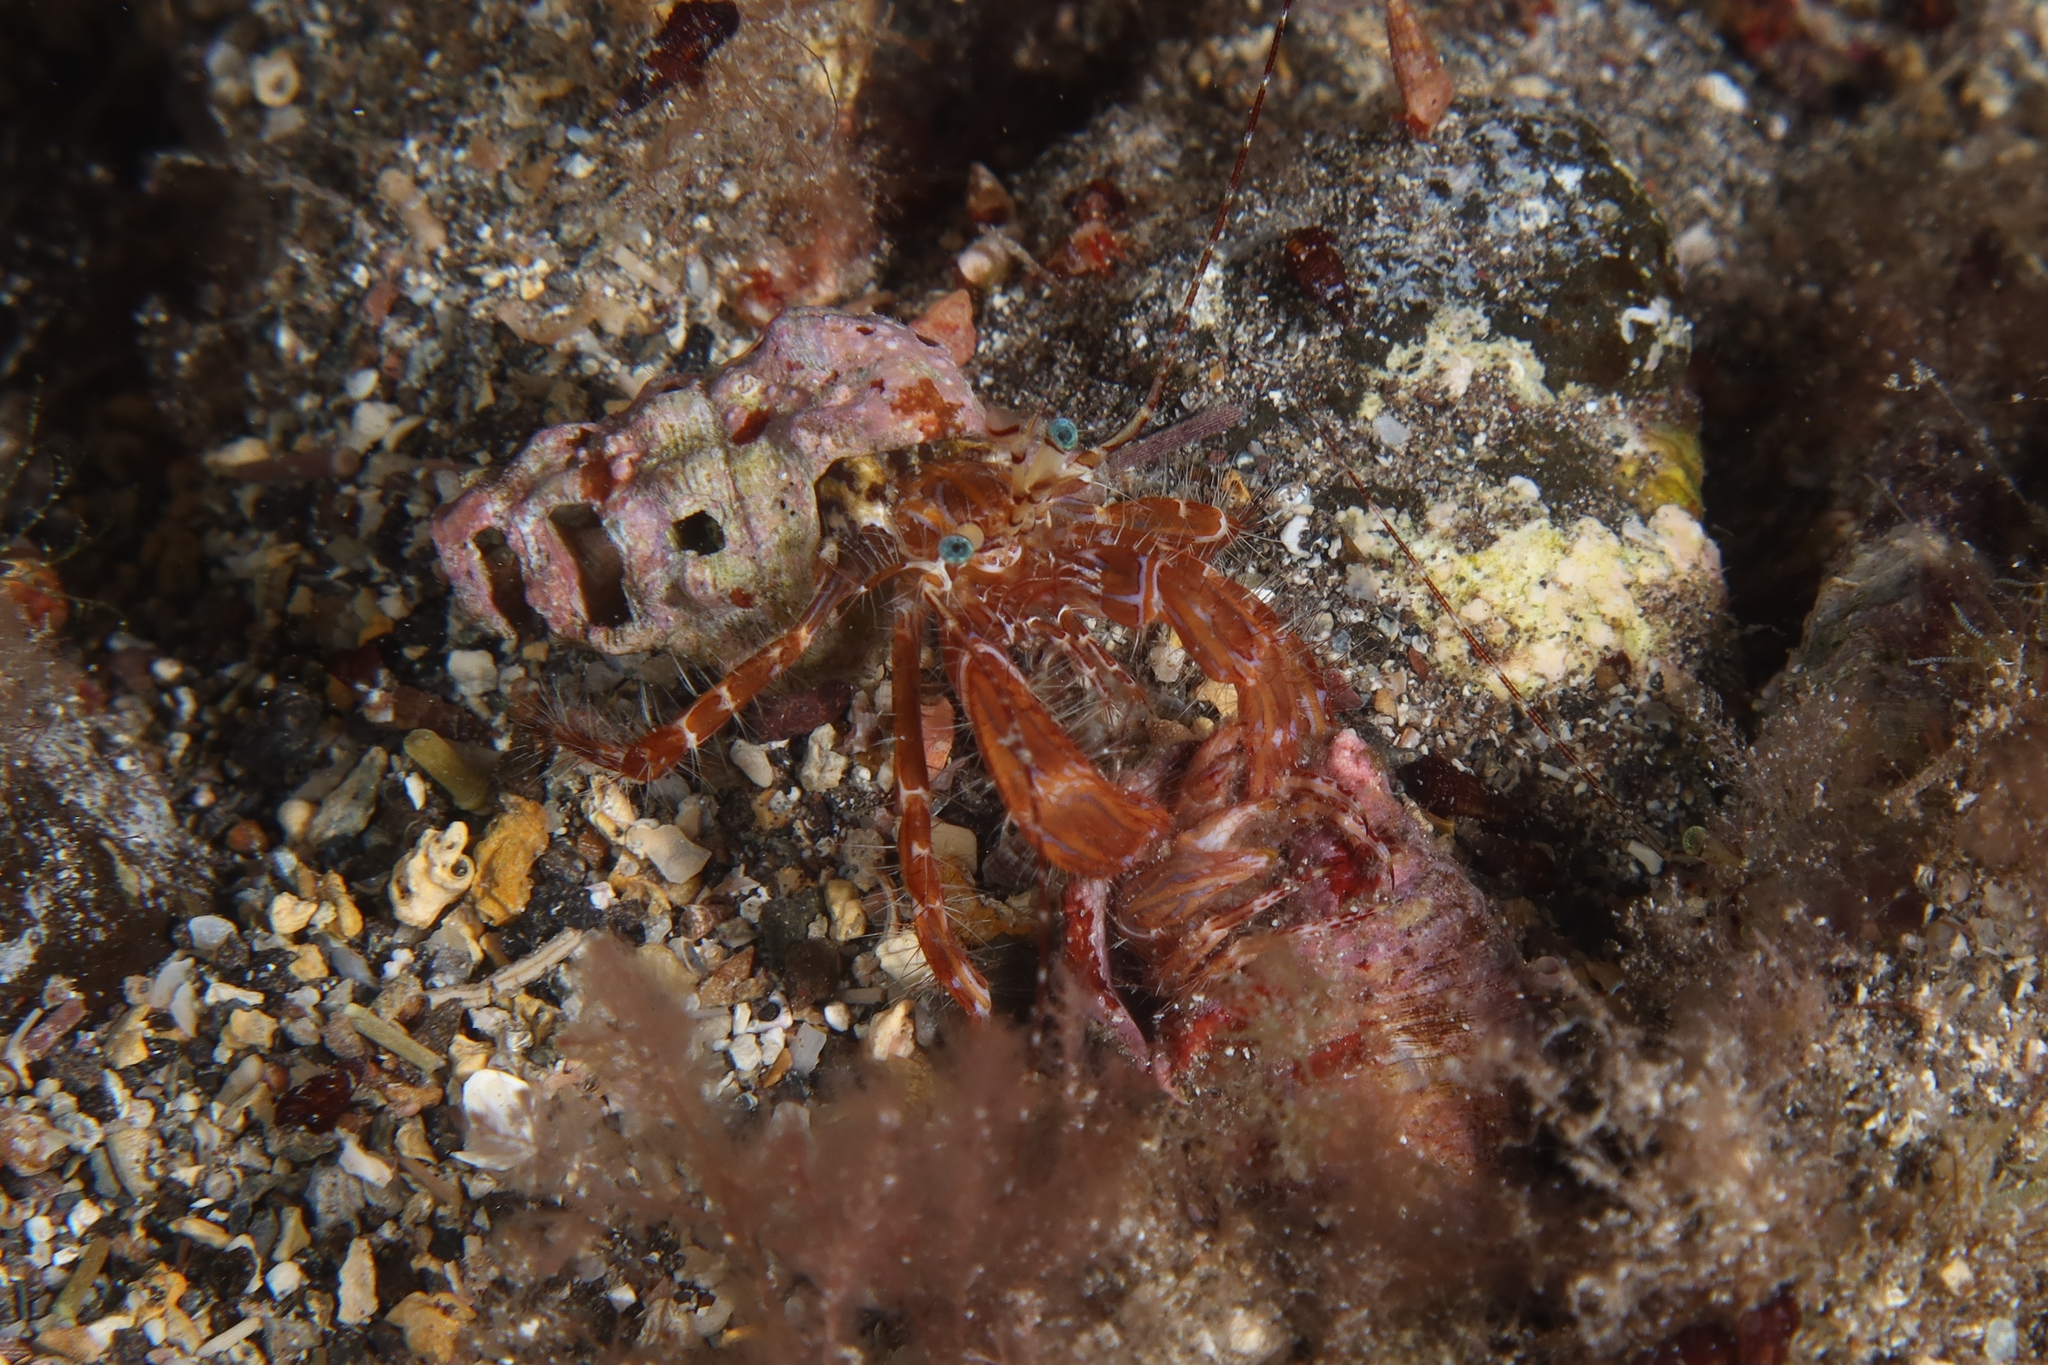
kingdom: Animalia
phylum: Arthropoda
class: Malacostraca
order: Decapoda
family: Paguridae
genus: Pagurus
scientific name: Pagurus anachoretus
